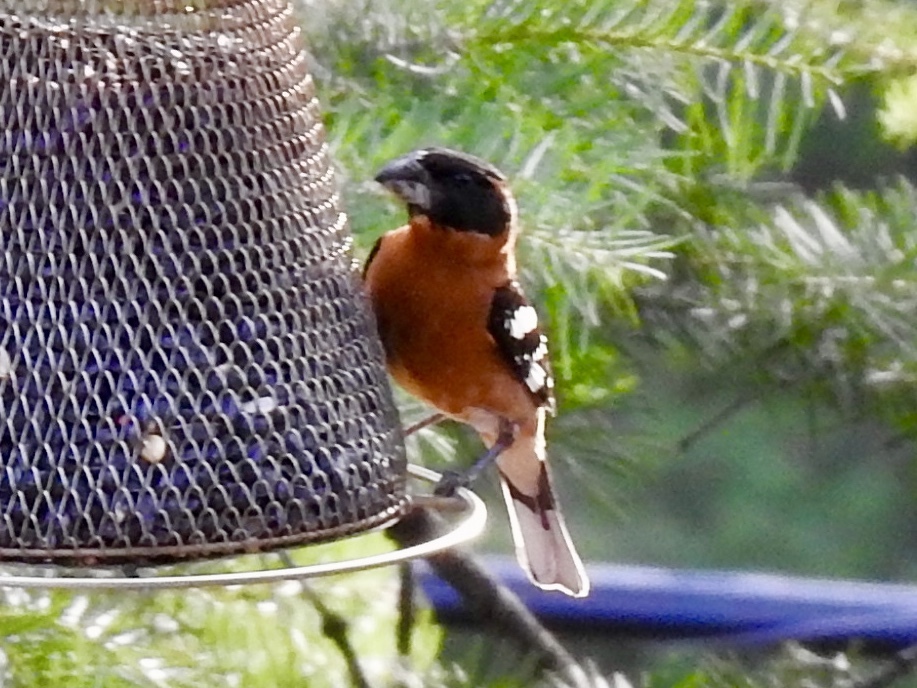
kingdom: Animalia
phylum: Chordata
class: Aves
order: Passeriformes
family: Cardinalidae
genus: Pheucticus
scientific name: Pheucticus melanocephalus
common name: Black-headed grosbeak
